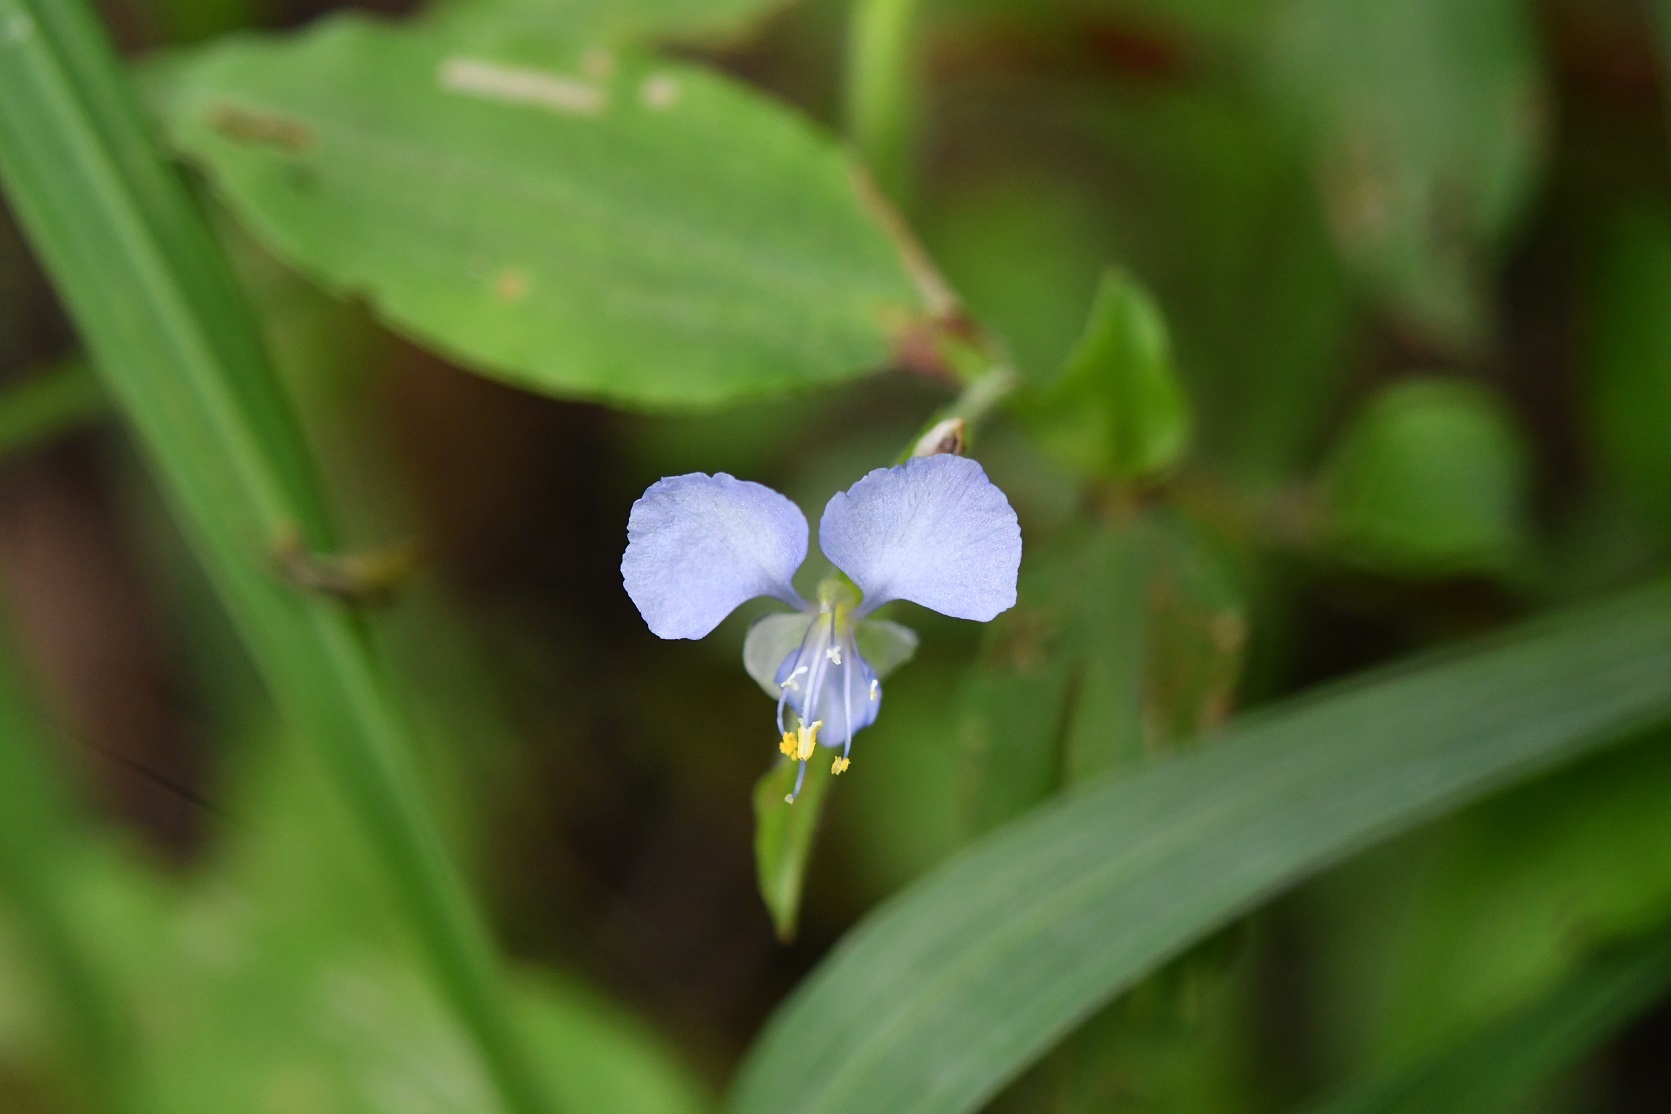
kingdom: Plantae
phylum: Tracheophyta
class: Liliopsida
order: Commelinales
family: Commelinaceae
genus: Commelina
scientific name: Commelina diffusa
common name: Climbing dayflower
